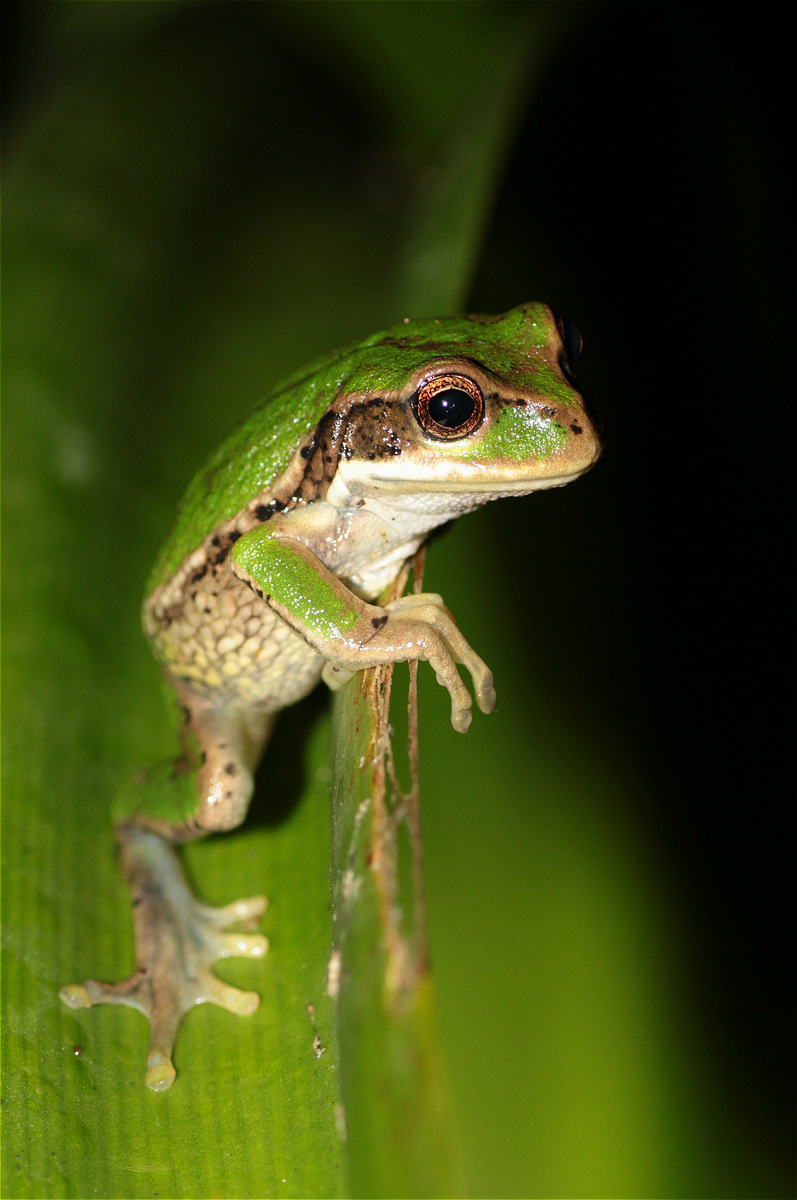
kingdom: Animalia
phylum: Chordata
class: Amphibia
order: Anura
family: Hemiphractidae
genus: Gastrotheca
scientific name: Gastrotheca cuencana
